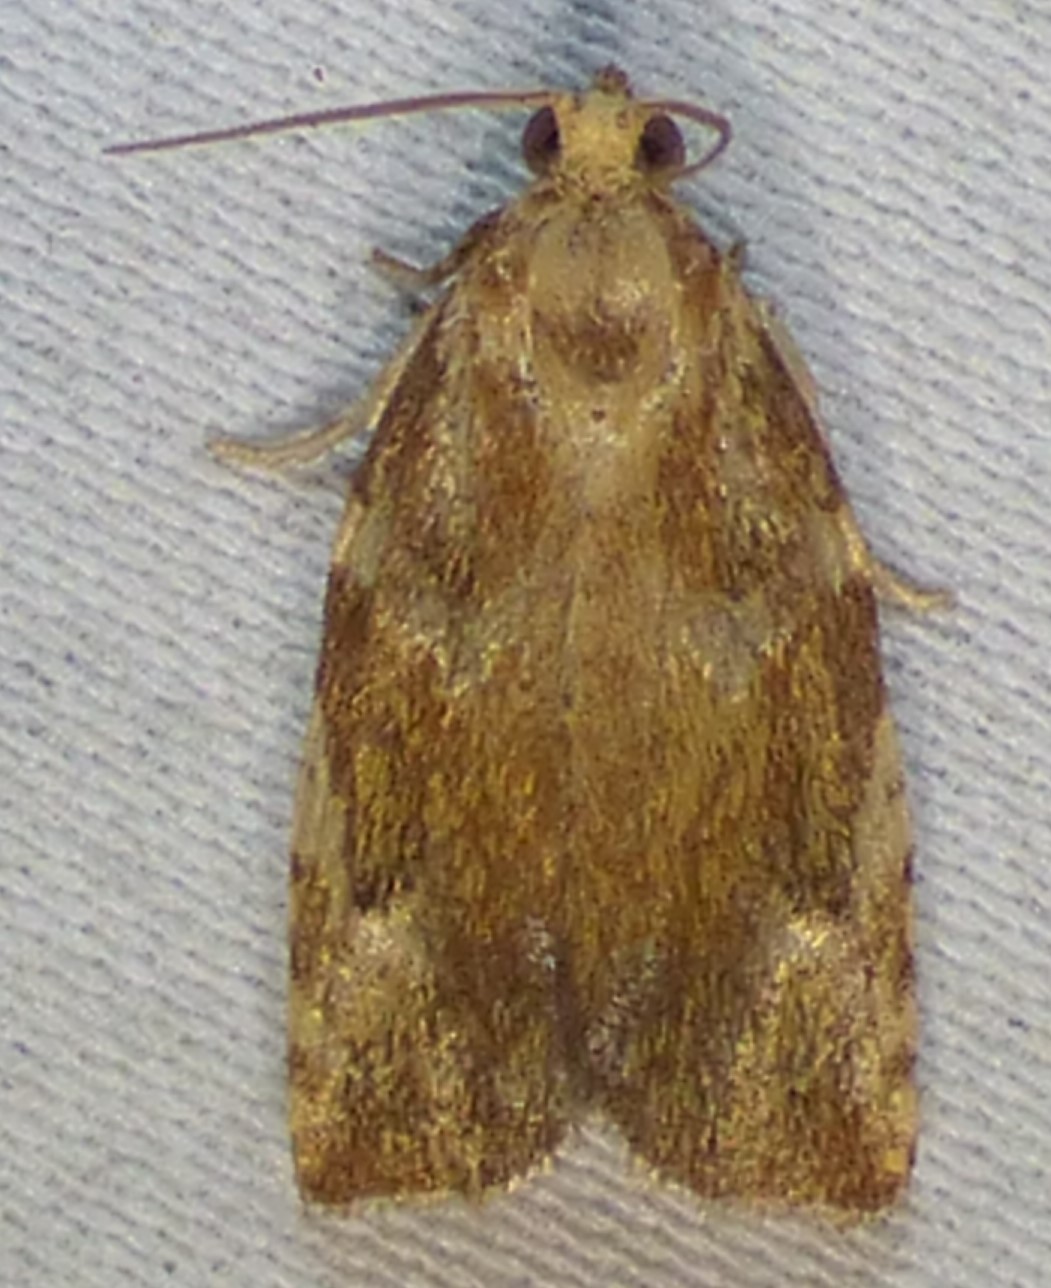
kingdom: Animalia
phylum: Arthropoda
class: Insecta
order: Lepidoptera
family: Tortricidae
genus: Archips
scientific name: Archips semiferanus
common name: Oak leafroller
